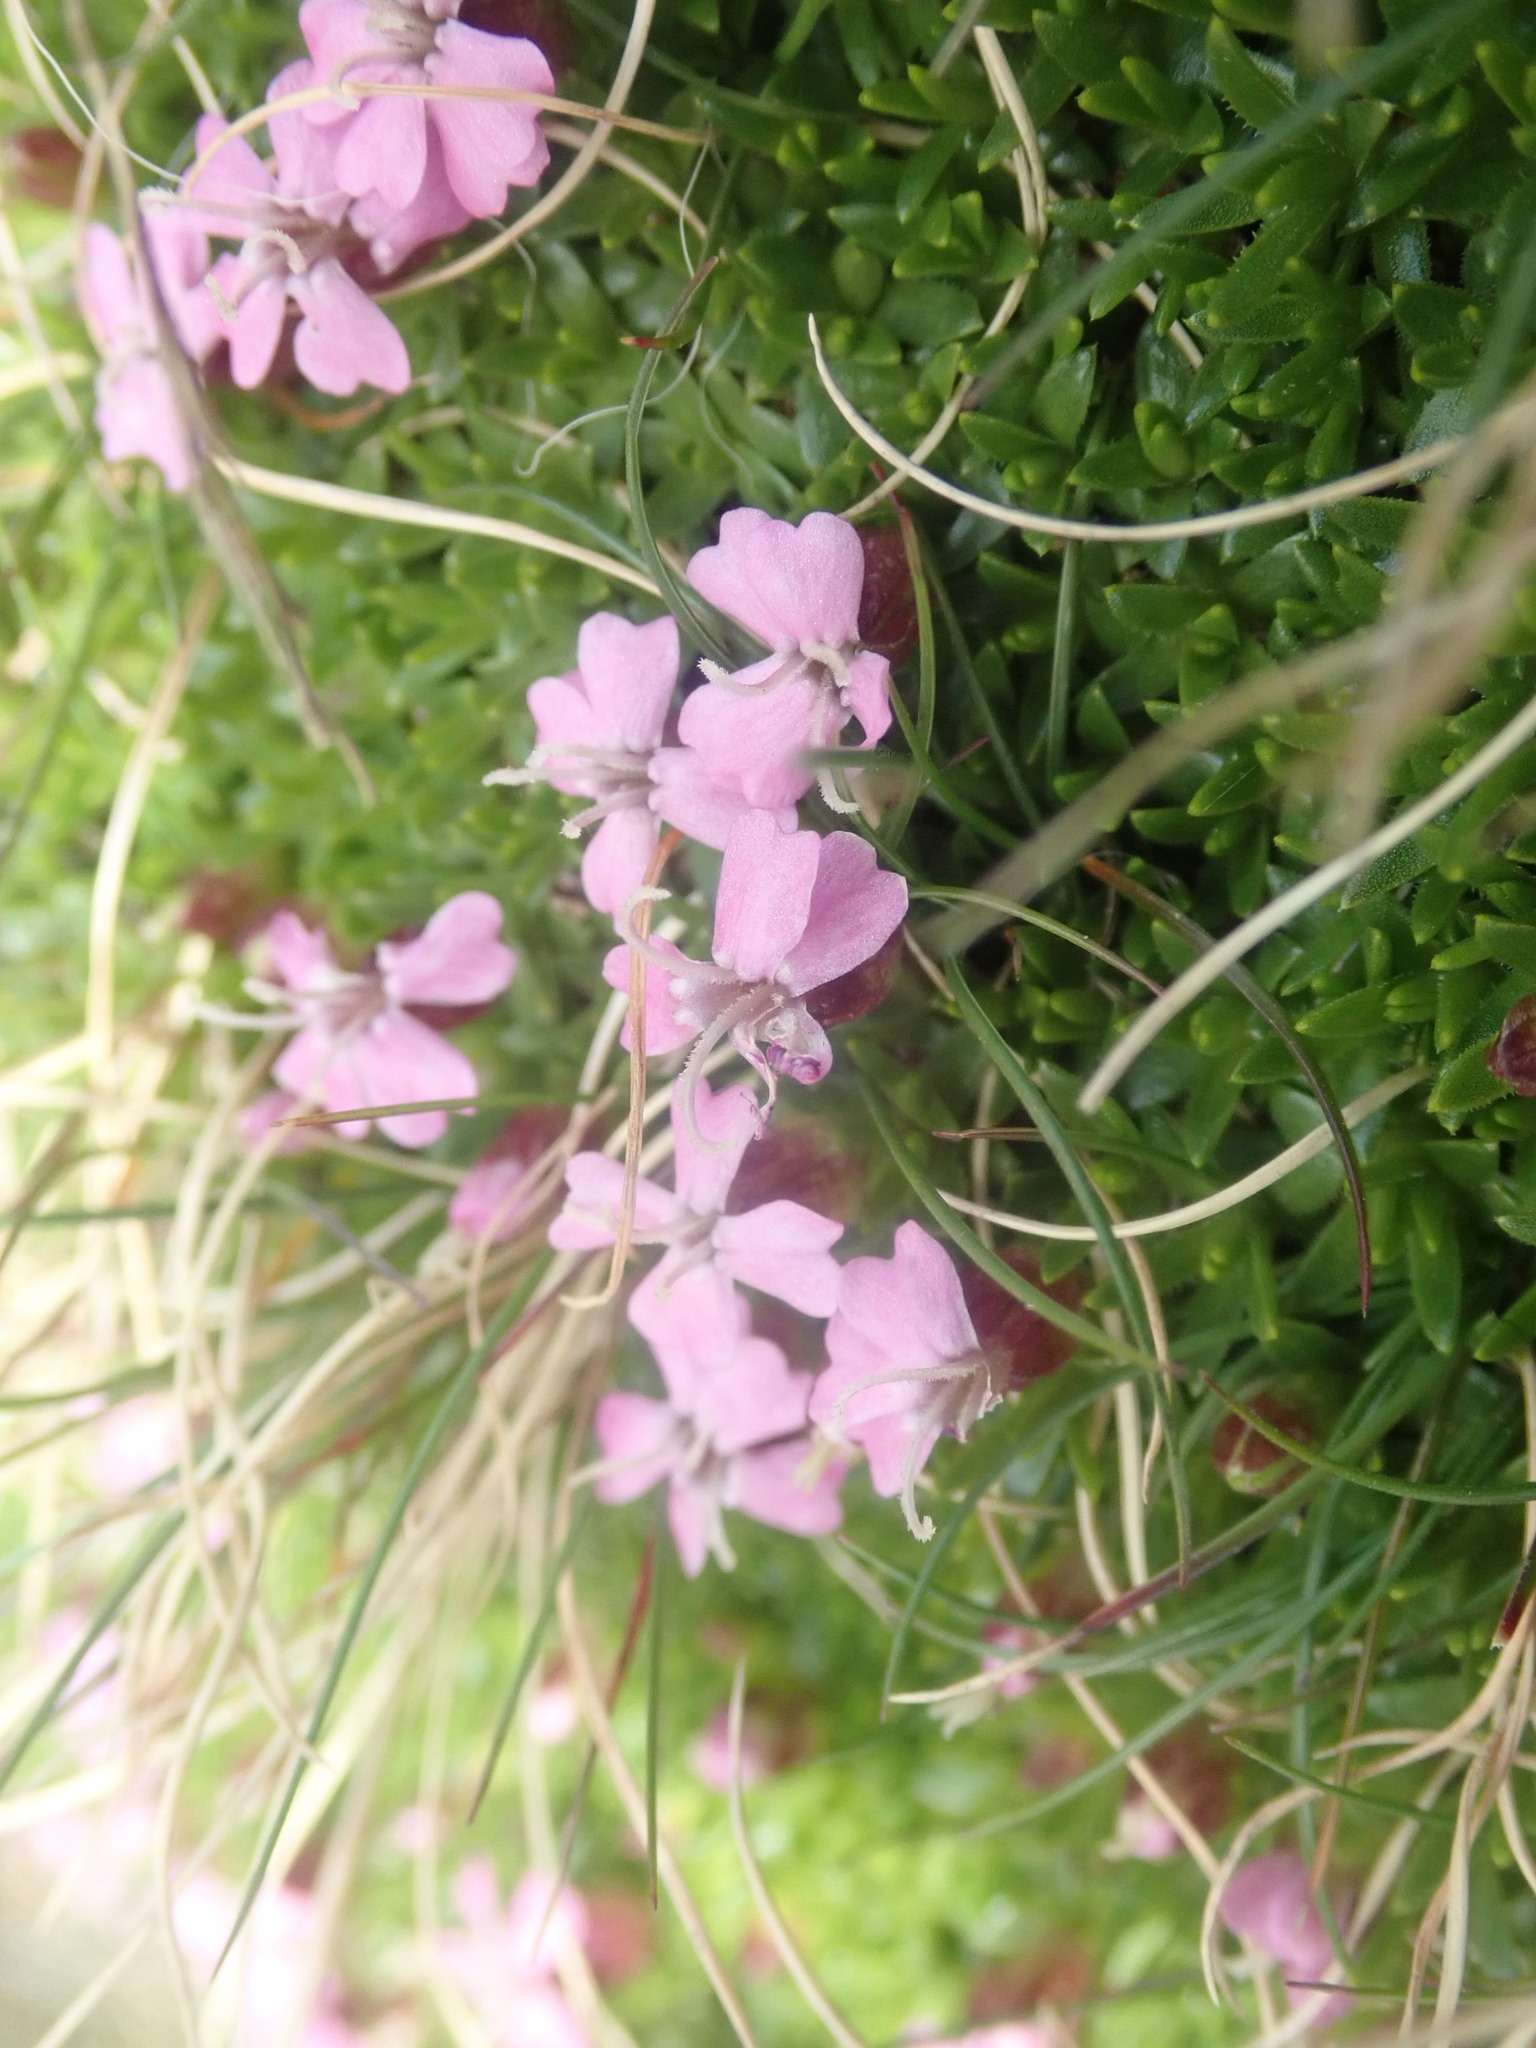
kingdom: Plantae
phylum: Tracheophyta
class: Magnoliopsida
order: Caryophyllales
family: Caryophyllaceae
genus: Silene
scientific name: Silene acaulis
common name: Moss campion
